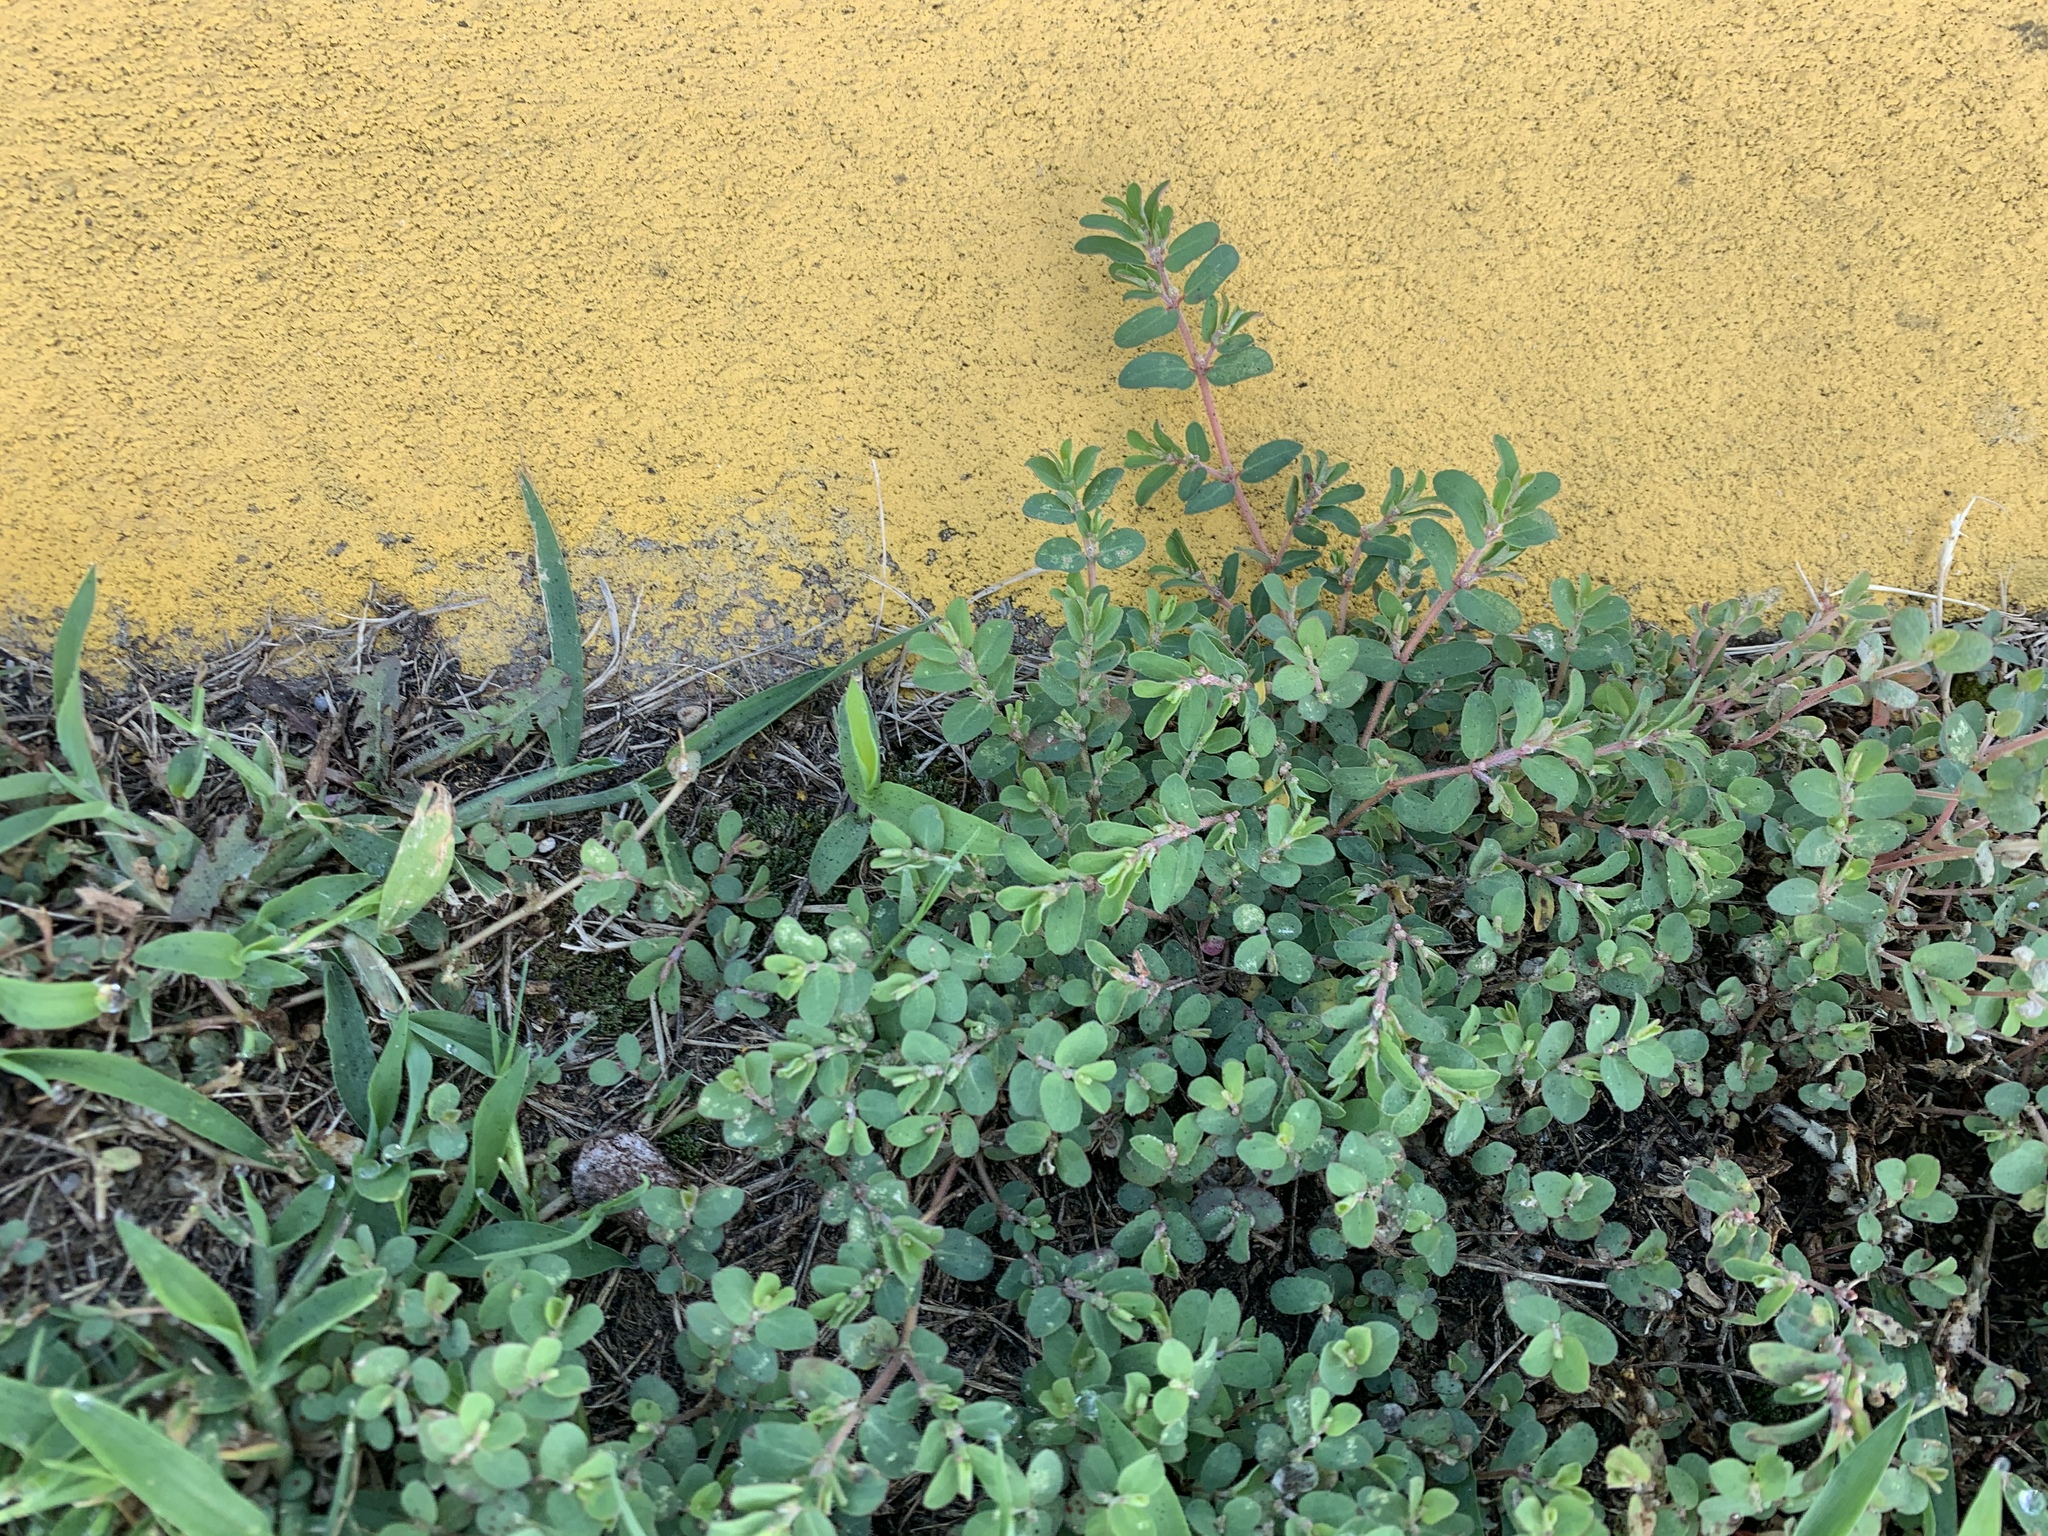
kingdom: Plantae
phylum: Tracheophyta
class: Magnoliopsida
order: Malpighiales
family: Euphorbiaceae
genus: Euphorbia
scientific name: Euphorbia maculata
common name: Spotted spurge
